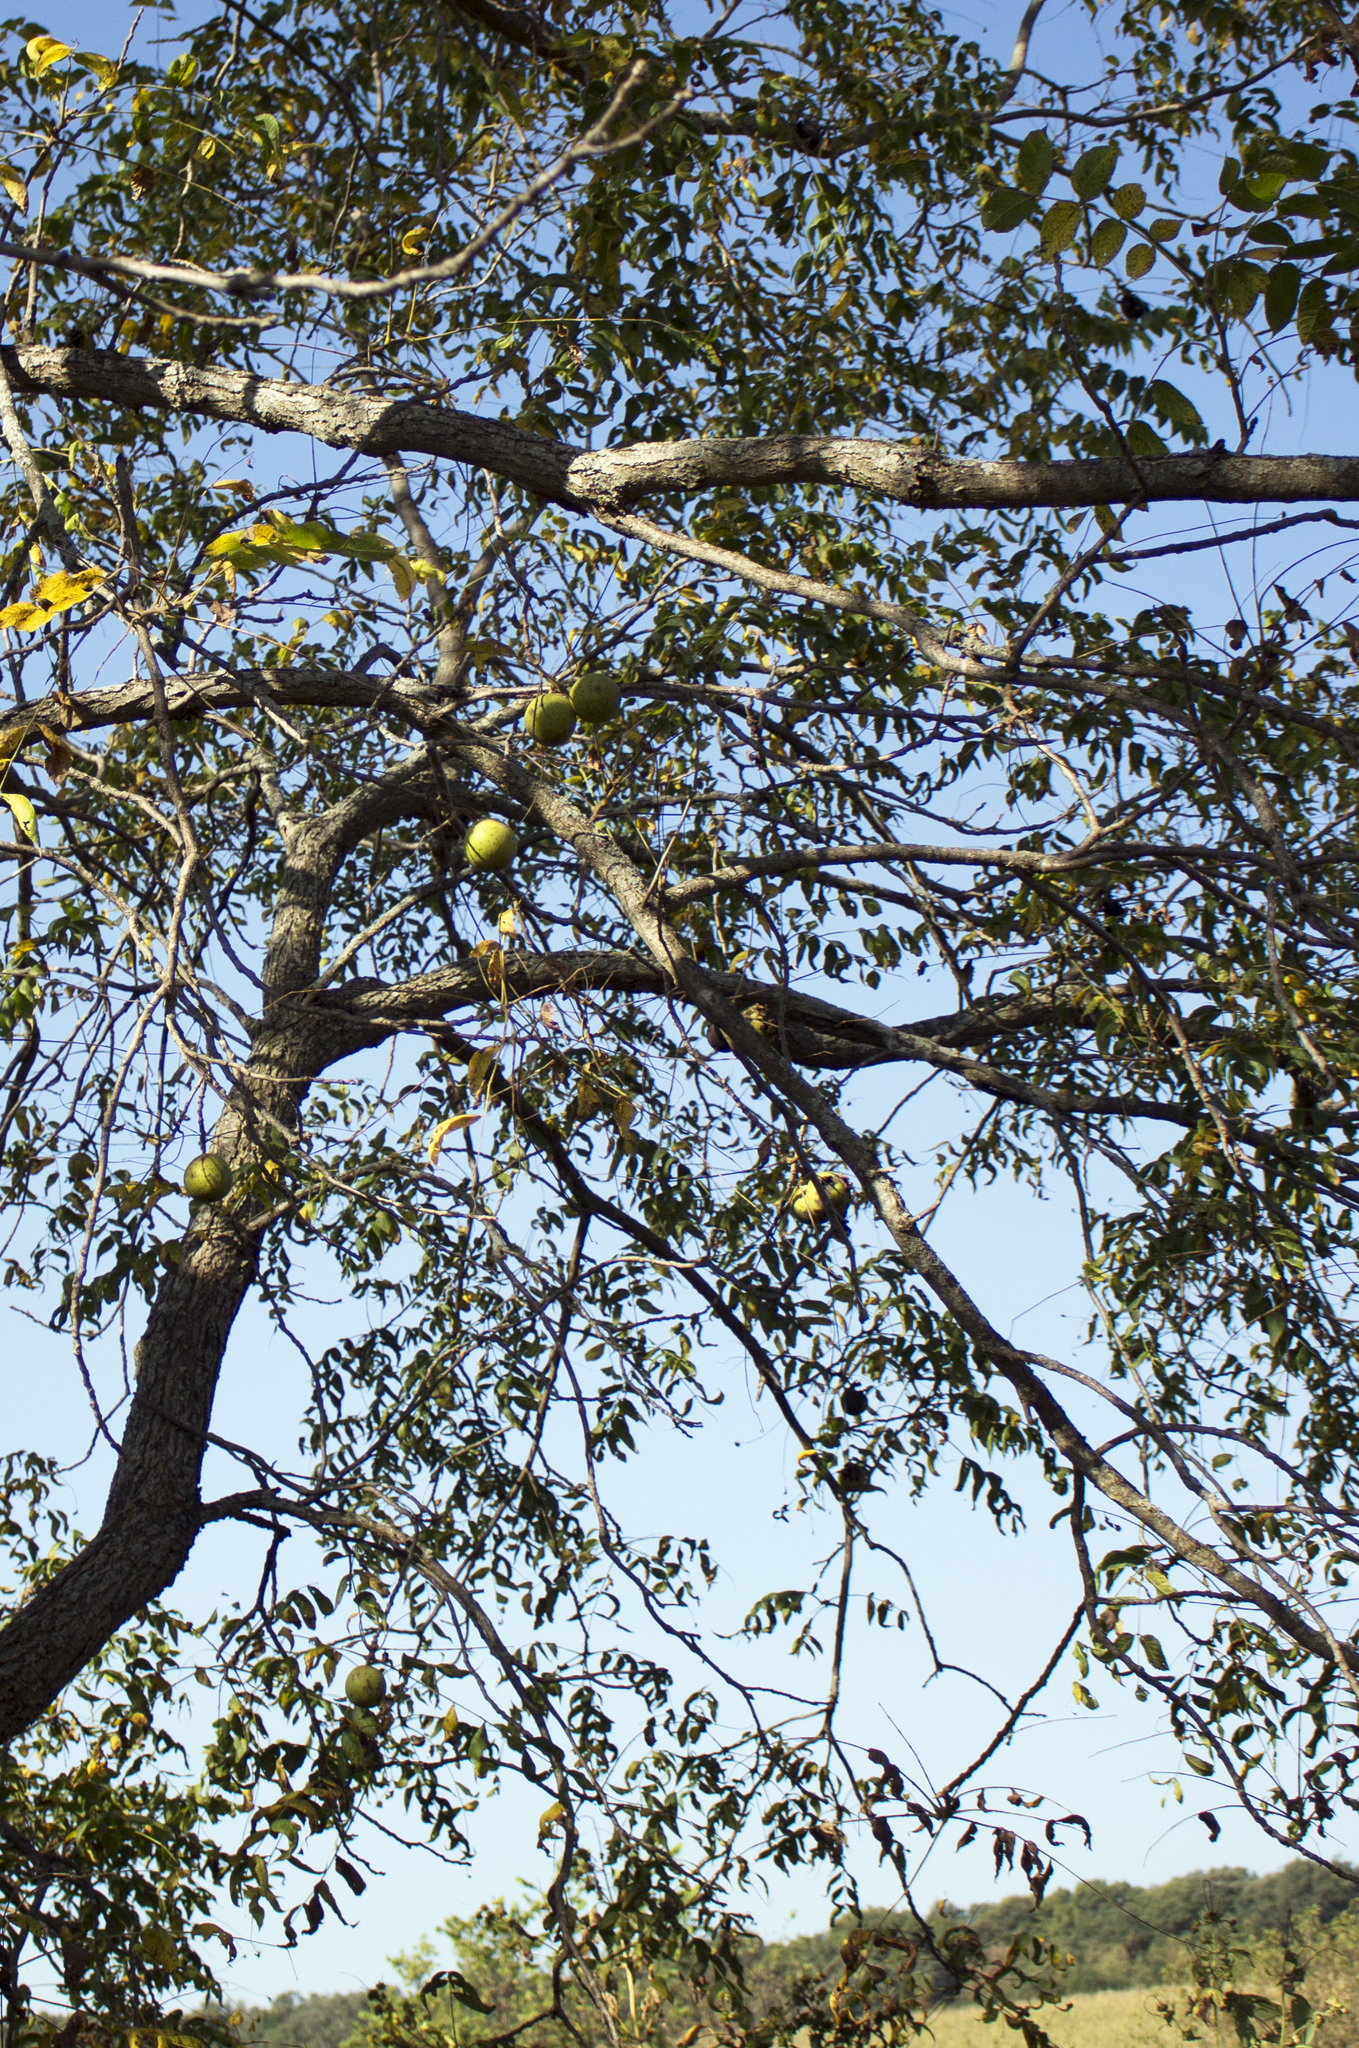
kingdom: Plantae
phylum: Tracheophyta
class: Magnoliopsida
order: Fagales
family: Juglandaceae
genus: Juglans
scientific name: Juglans nigra
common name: Black walnut
